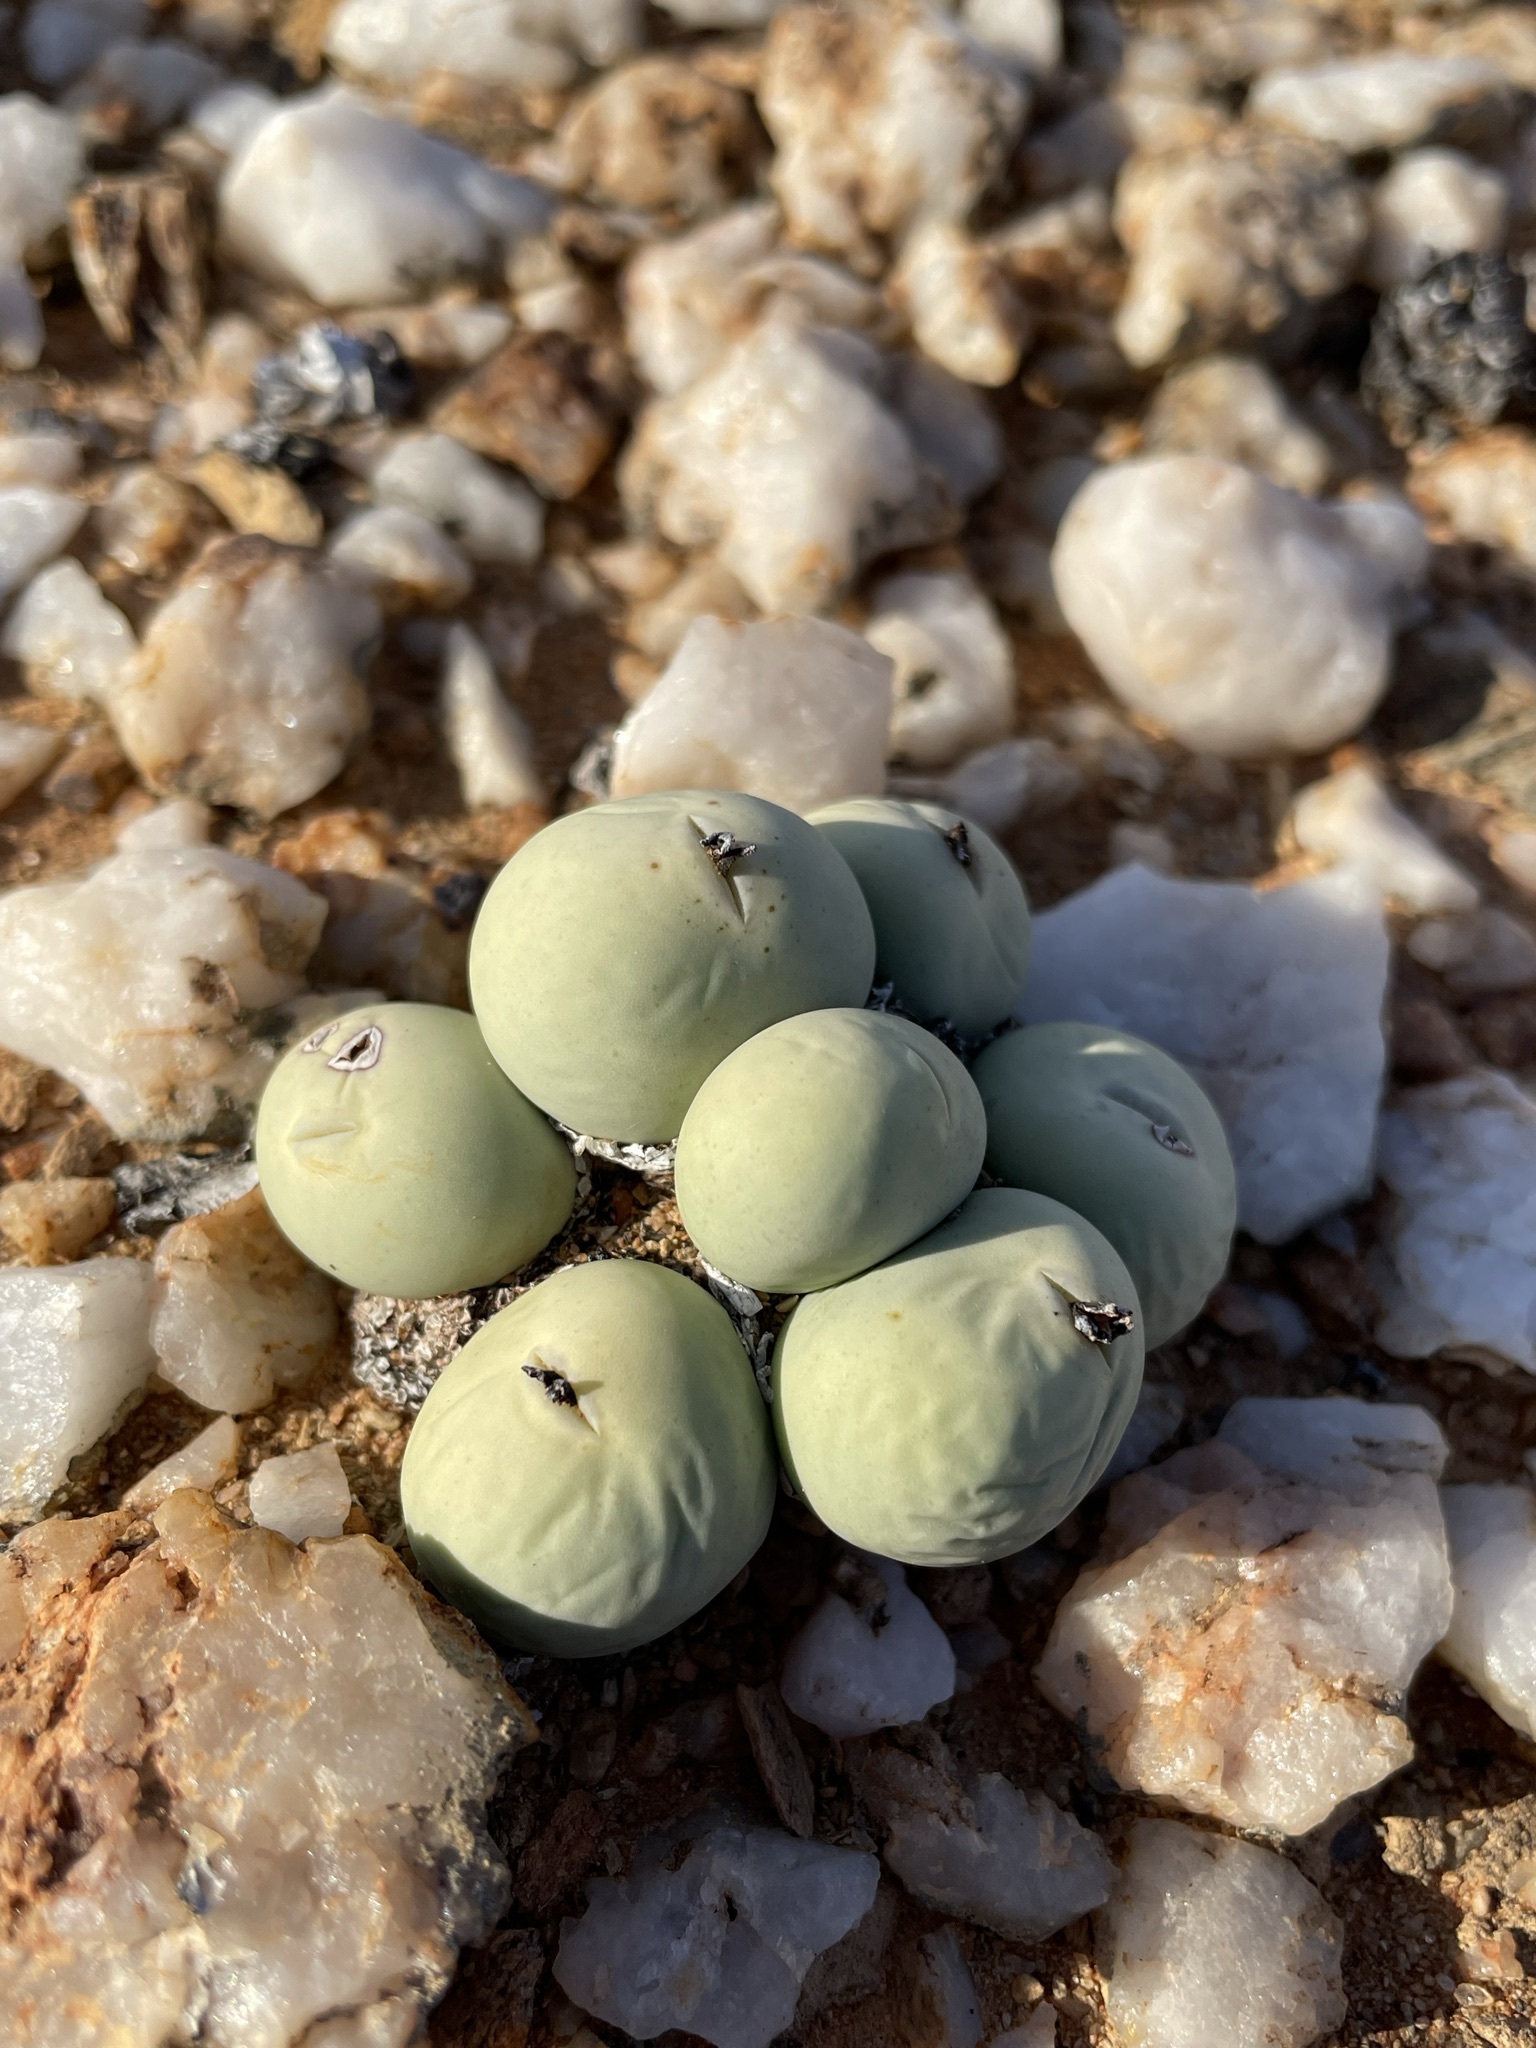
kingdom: Plantae
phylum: Tracheophyta
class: Magnoliopsida
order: Caryophyllales
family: Aizoaceae
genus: Conophytum
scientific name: Conophytum calculus
